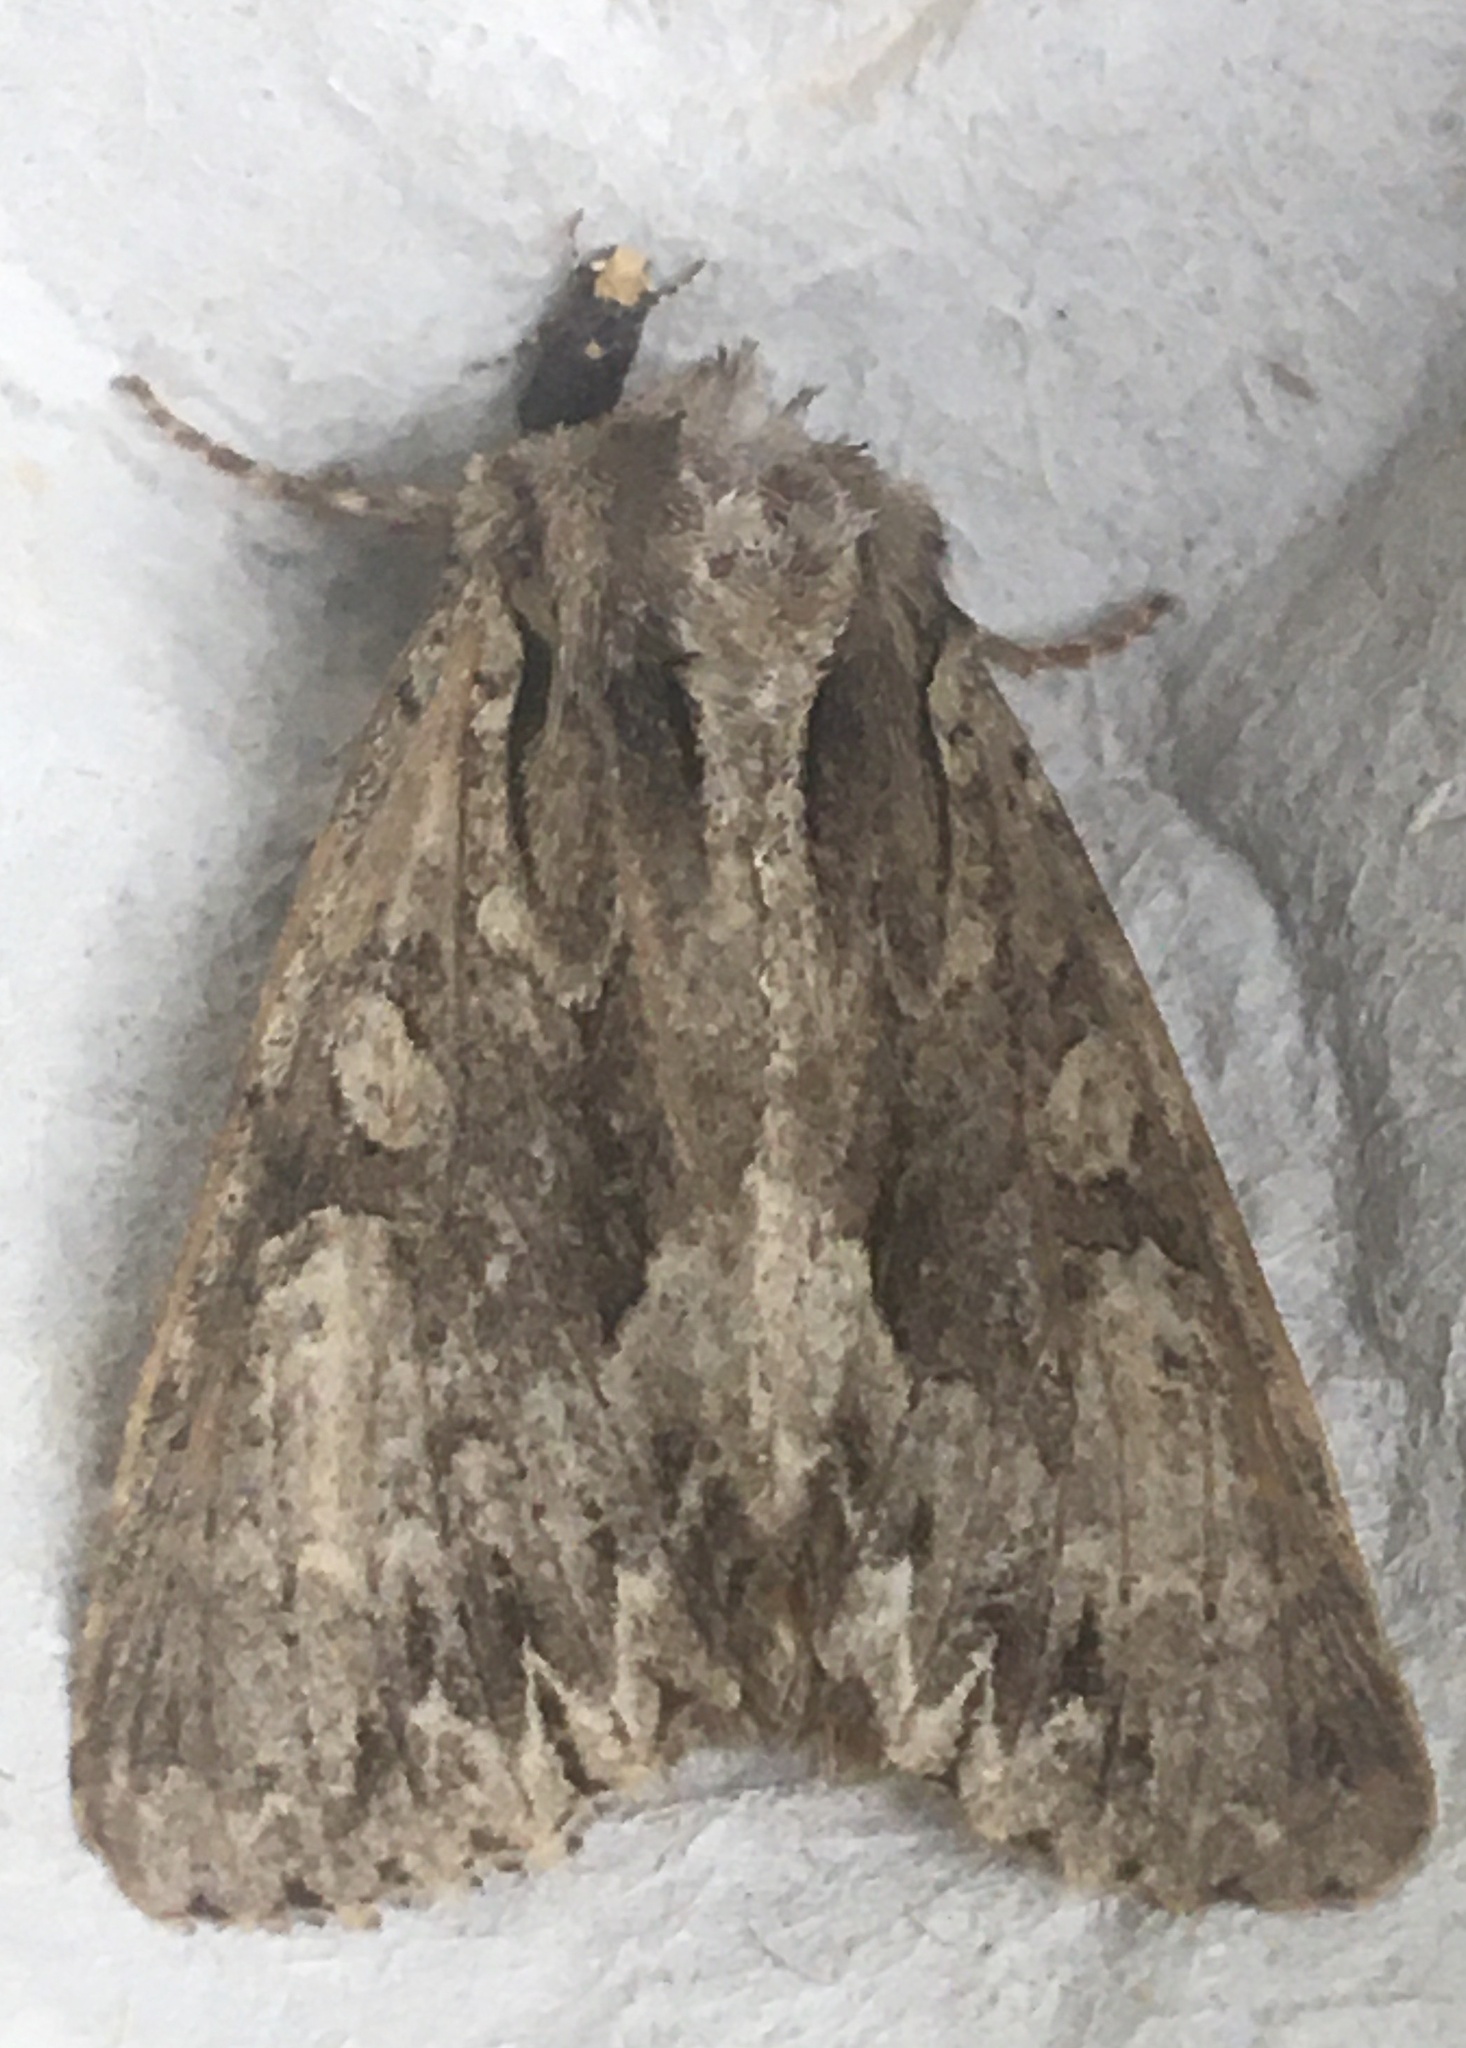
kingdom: Animalia
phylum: Arthropoda
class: Insecta
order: Lepidoptera
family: Noctuidae
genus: Apamea
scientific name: Apamea monoglypha
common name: Dark arches
